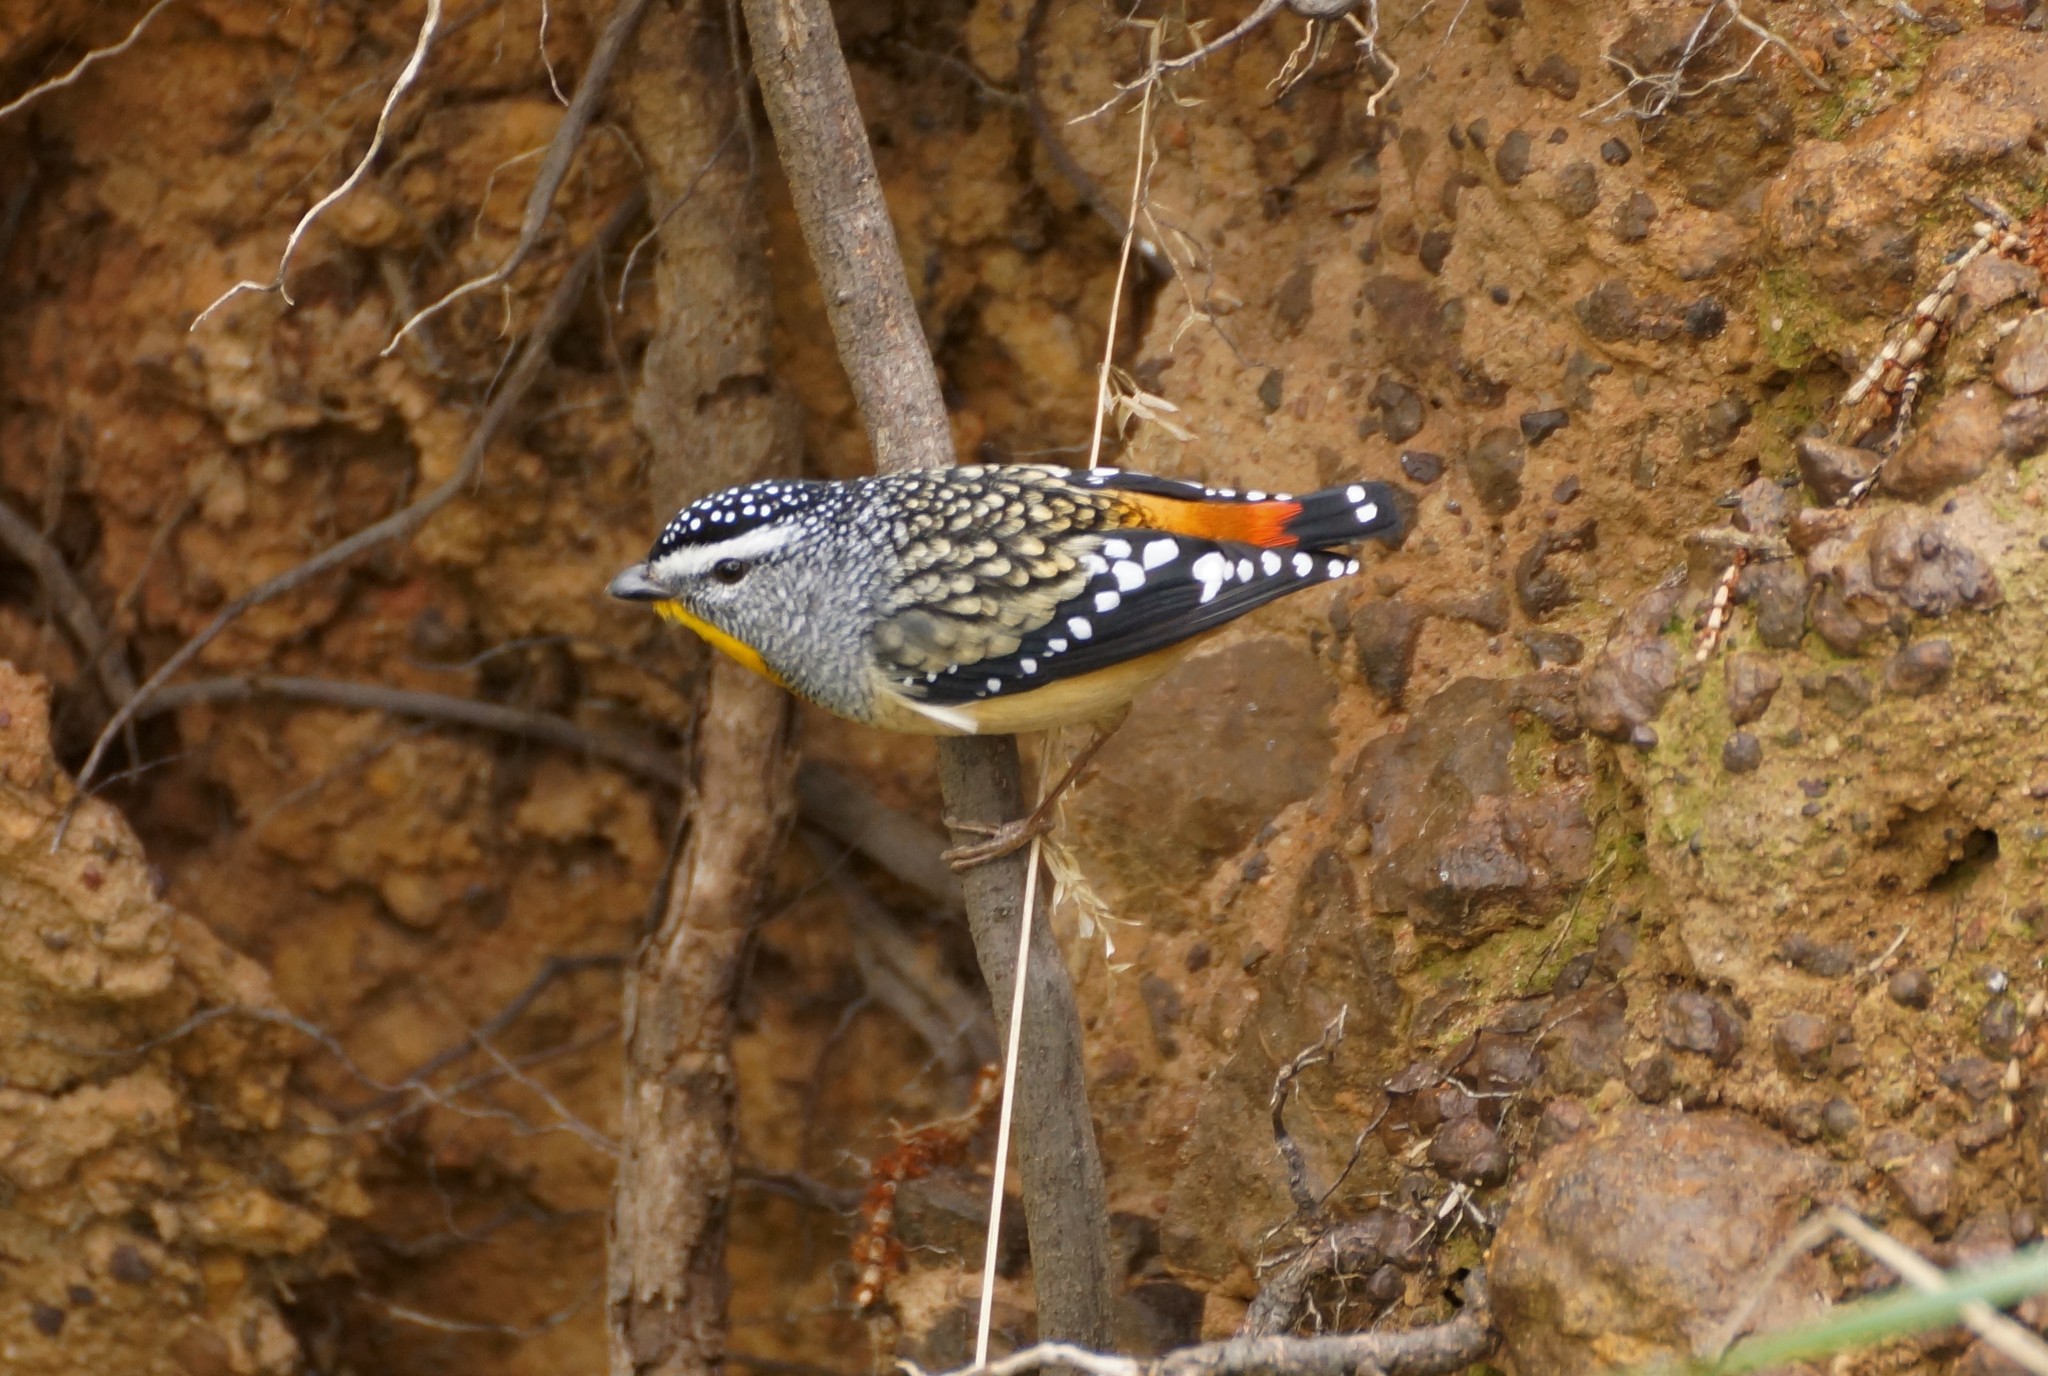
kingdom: Animalia
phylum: Chordata
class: Aves
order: Passeriformes
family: Pardalotidae
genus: Pardalotus
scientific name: Pardalotus punctatus
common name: Spotted pardalote
